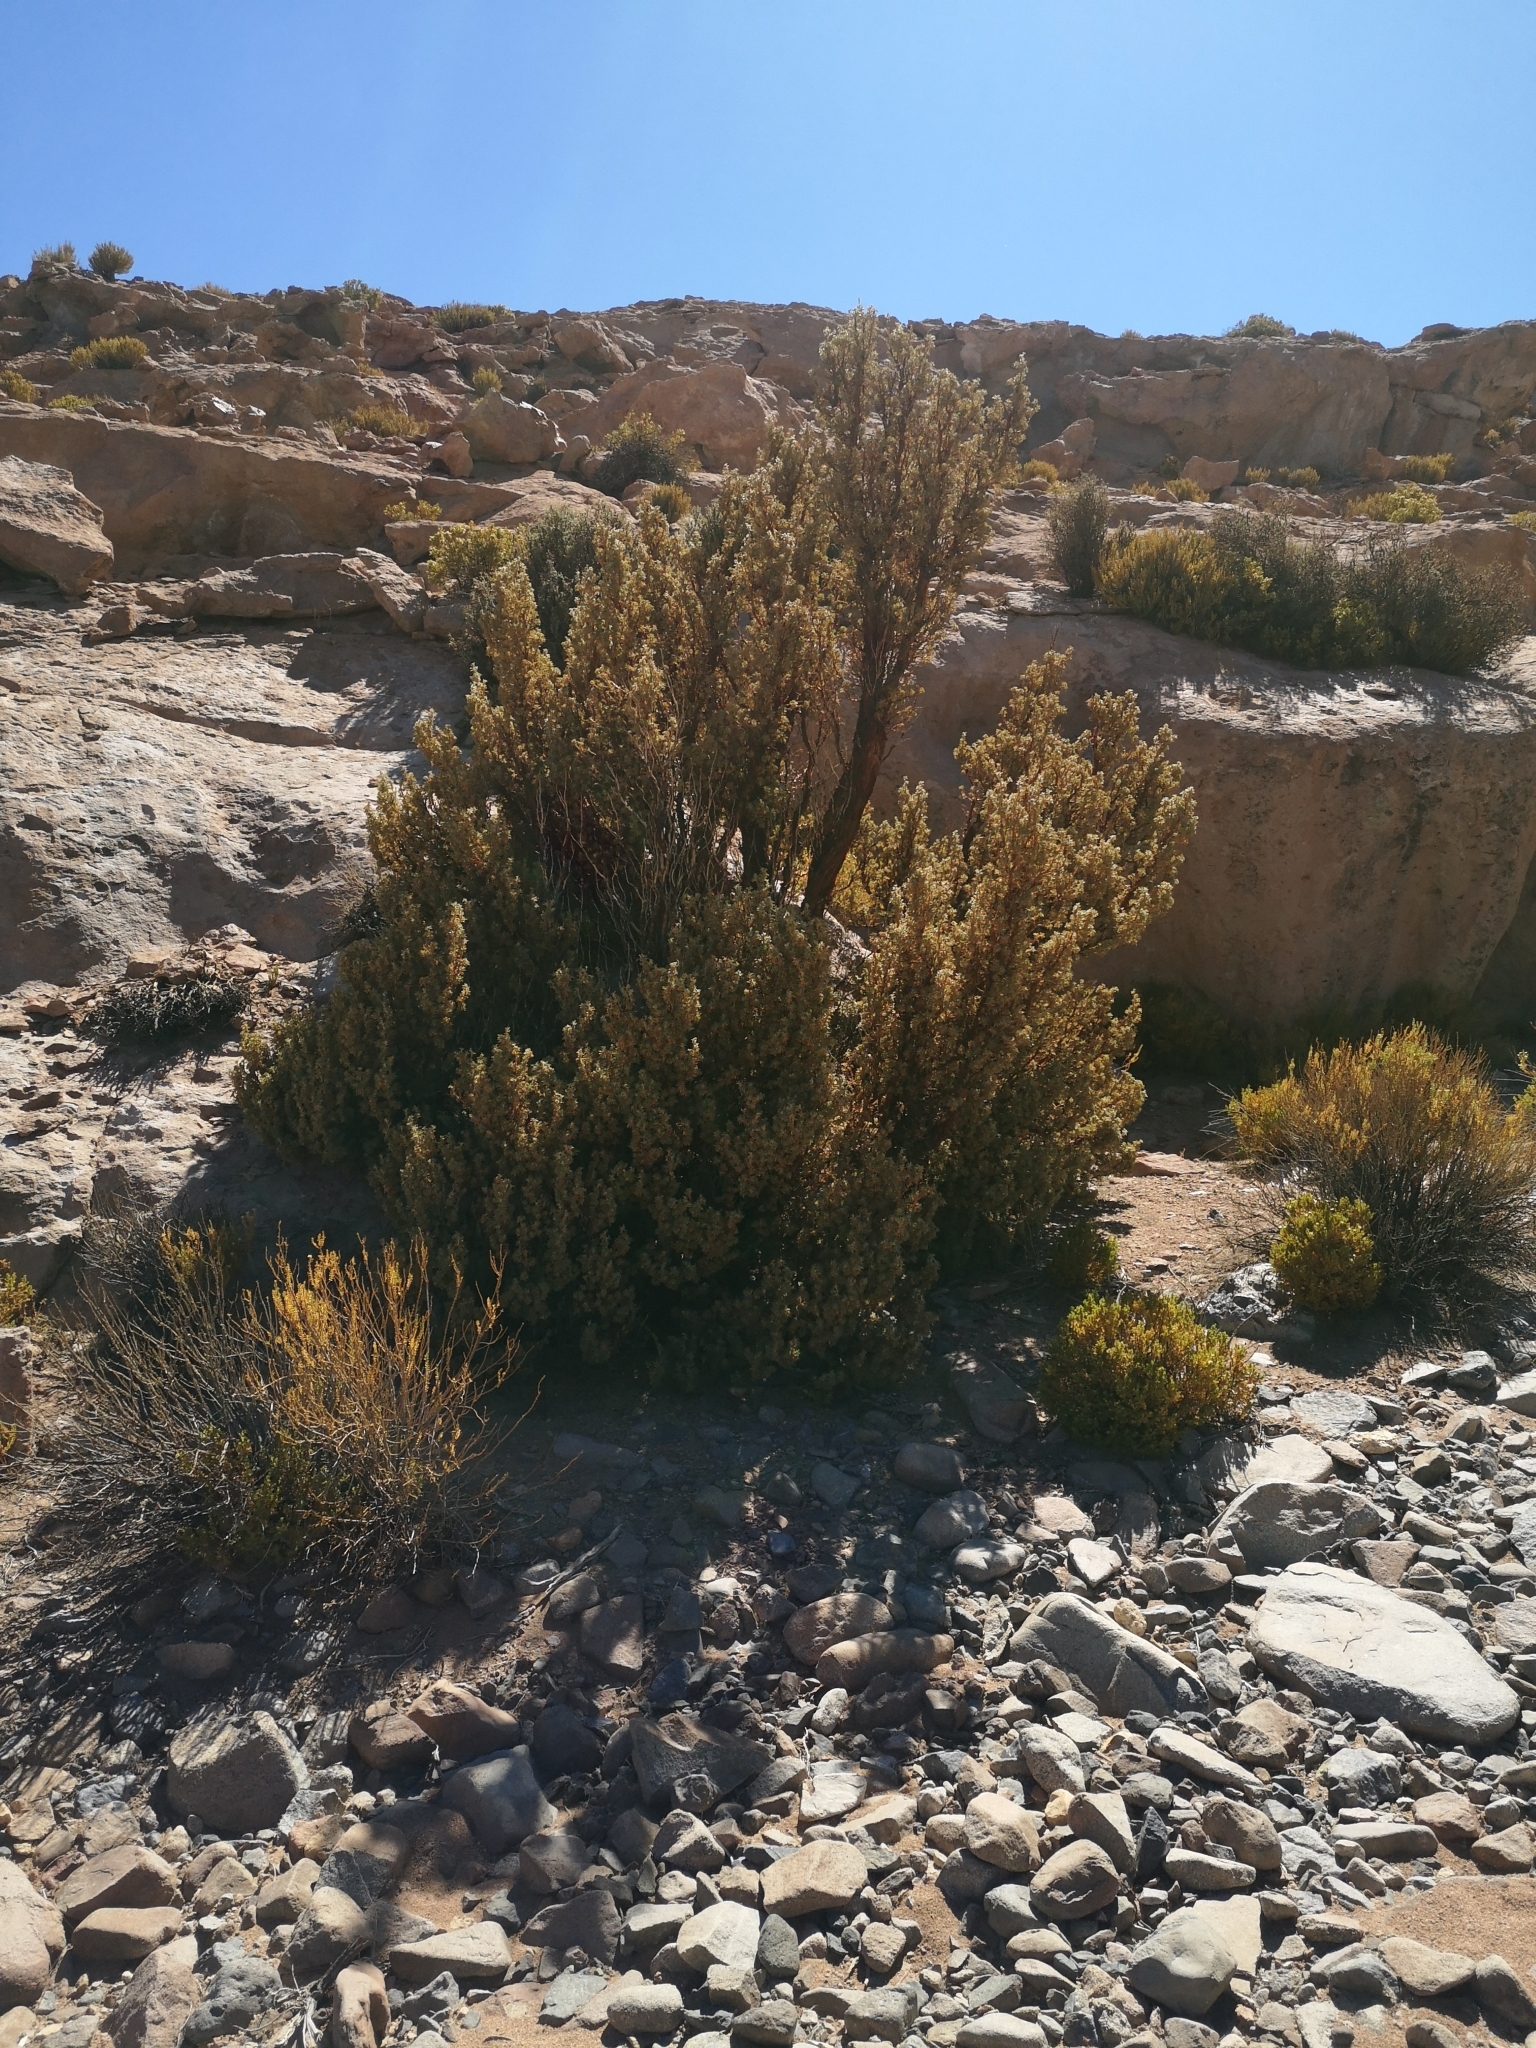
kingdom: Plantae
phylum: Tracheophyta
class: Magnoliopsida
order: Rosales
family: Rosaceae
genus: Polylepis
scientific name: Polylepis tarapacana
